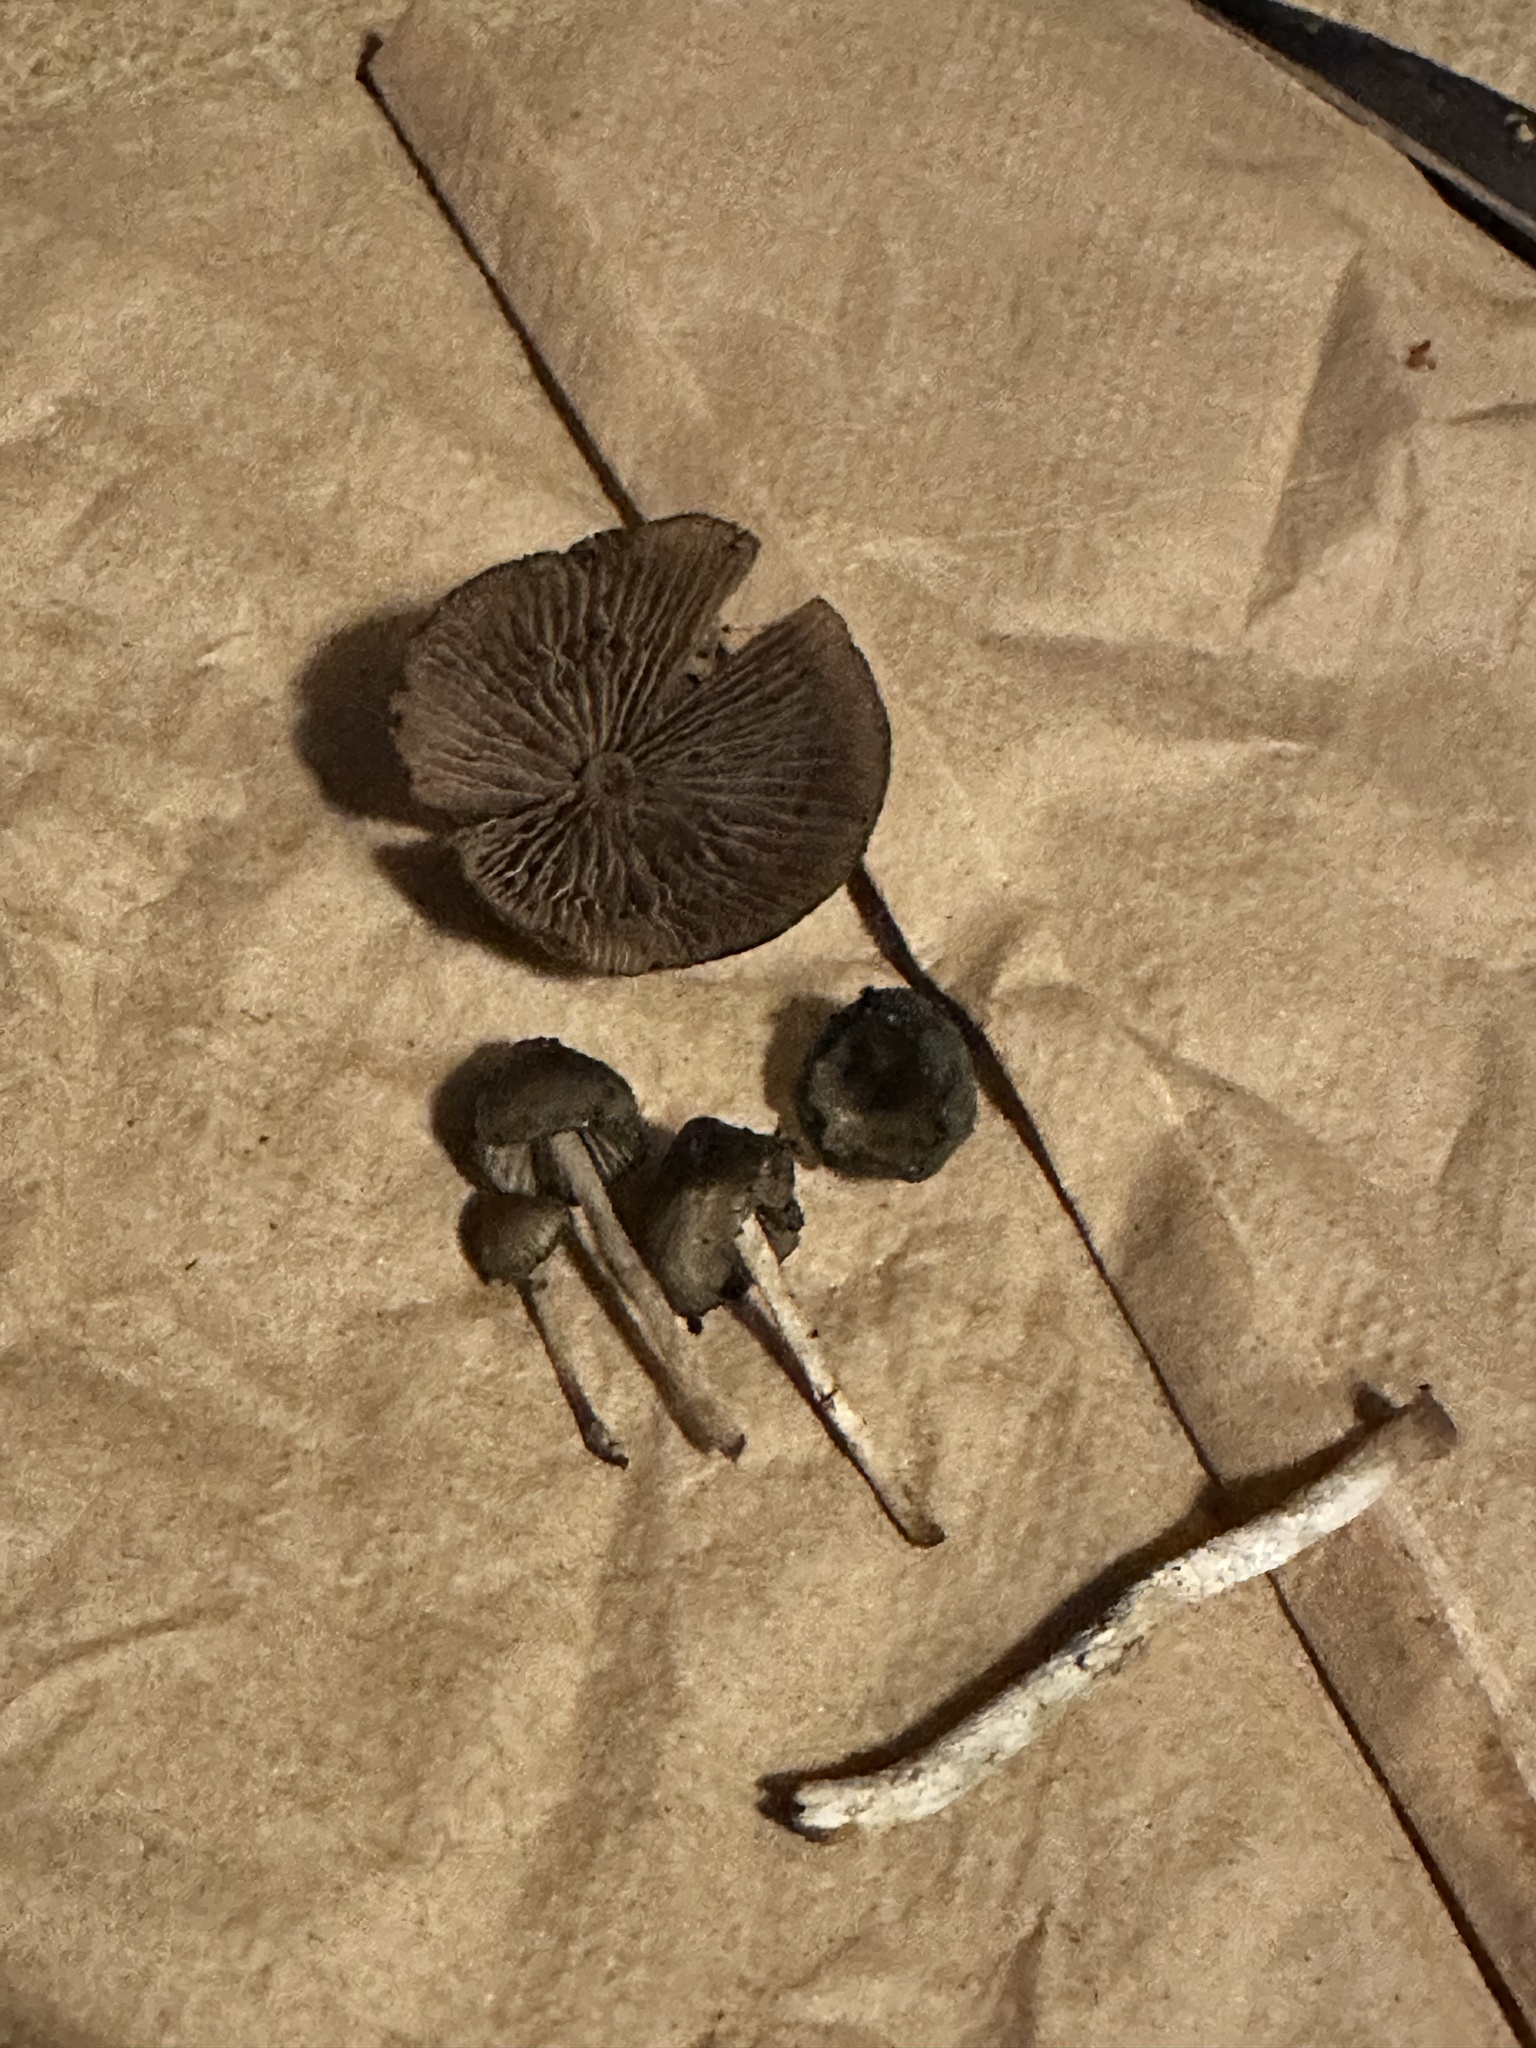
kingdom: Fungi
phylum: Basidiomycota
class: Agaricomycetes
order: Agaricales
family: Hymenogastraceae
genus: Psilocybe
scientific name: Psilocybe baeocystis
